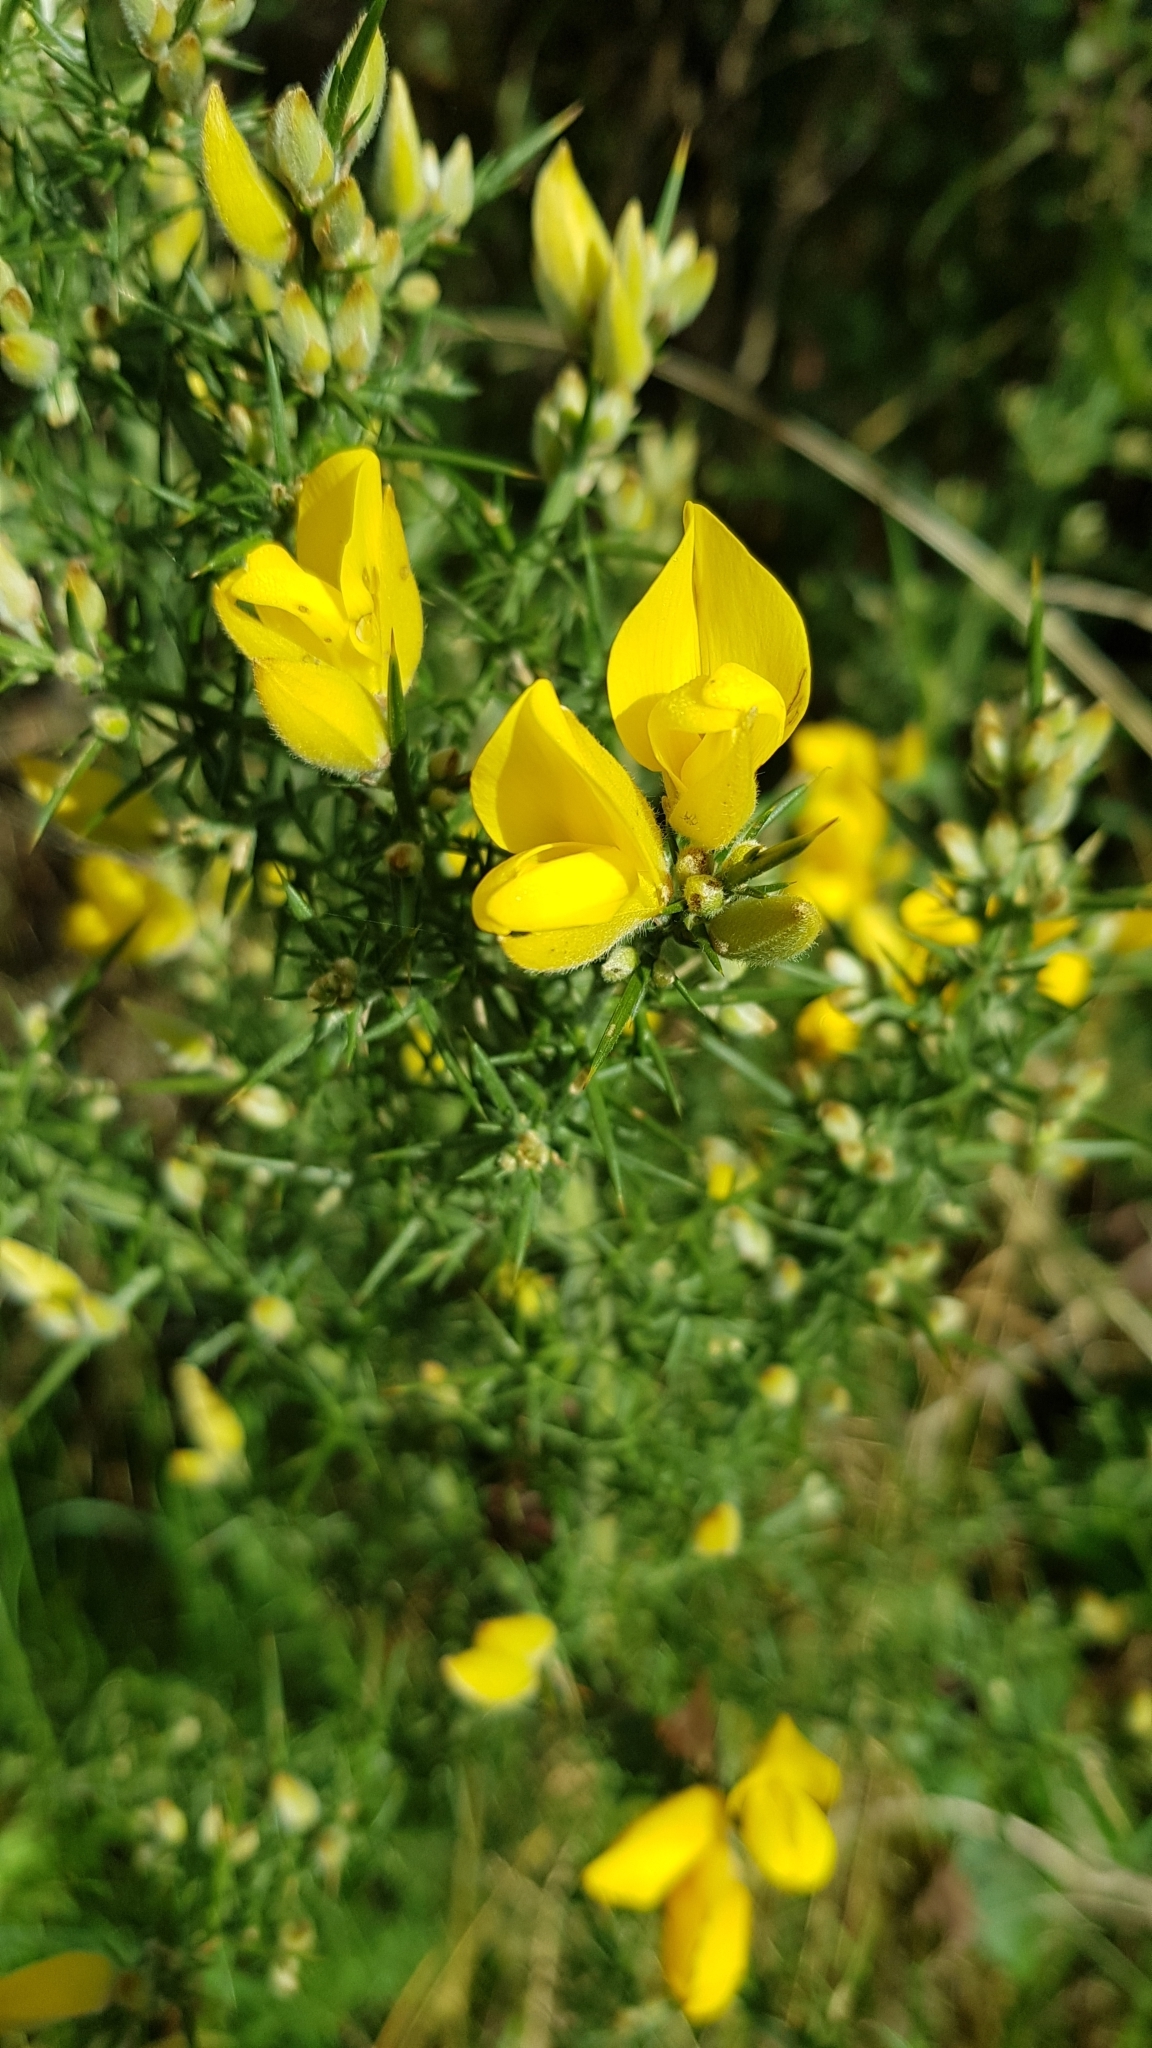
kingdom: Plantae
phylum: Tracheophyta
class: Magnoliopsida
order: Fabales
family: Fabaceae
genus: Ulex
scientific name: Ulex europaeus
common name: Common gorse
